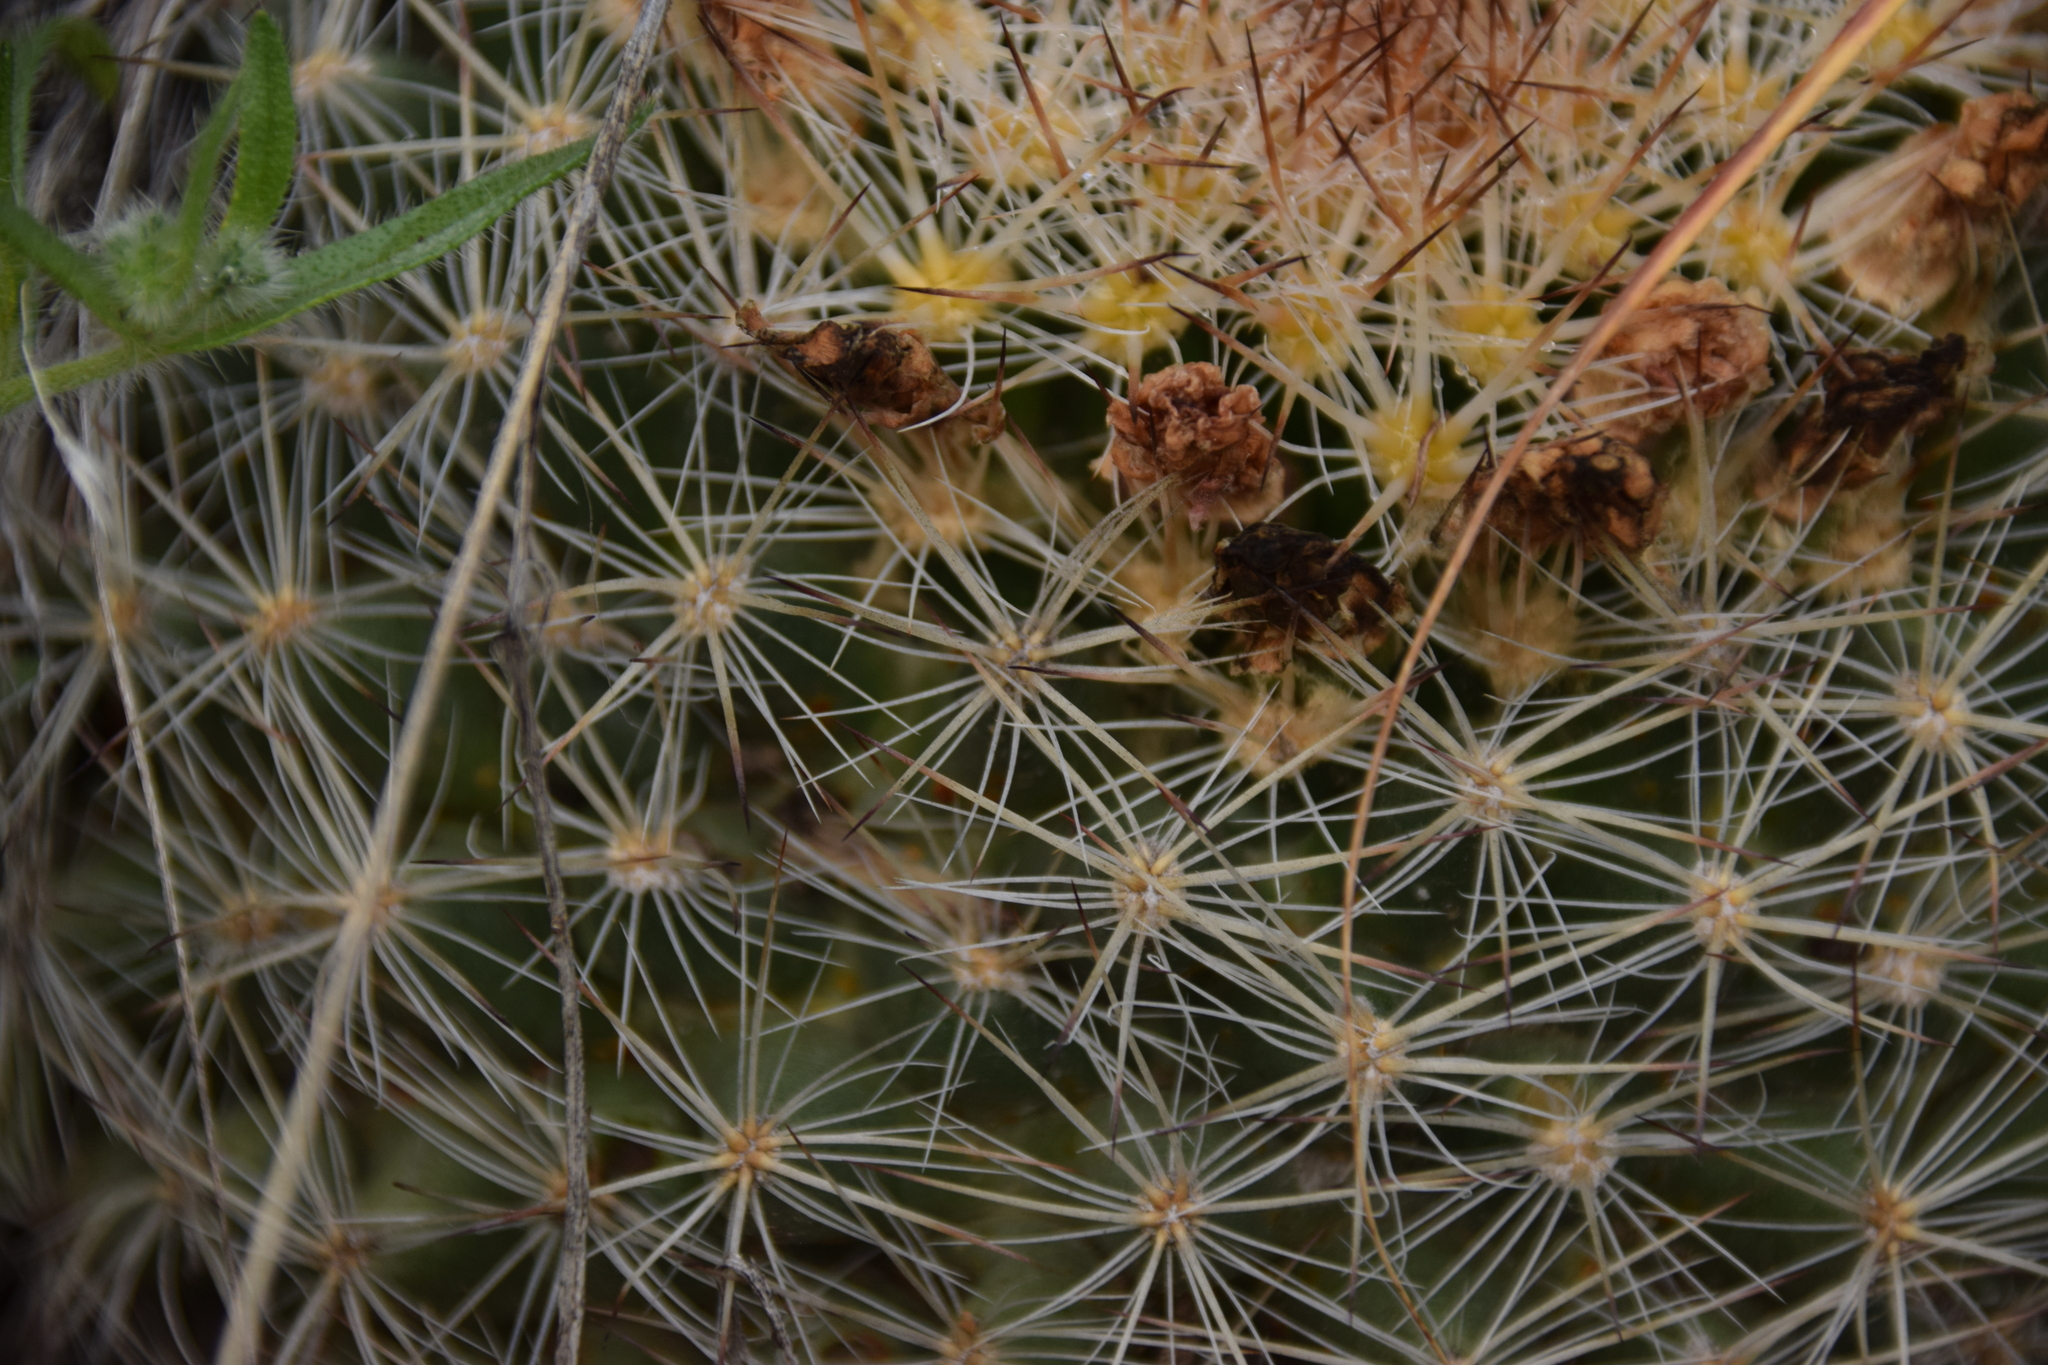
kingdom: Plantae
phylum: Tracheophyta
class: Magnoliopsida
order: Caryophyllales
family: Cactaceae
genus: Pediocactus
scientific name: Pediocactus simpsonii
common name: Simpson's hedgehog cactus
